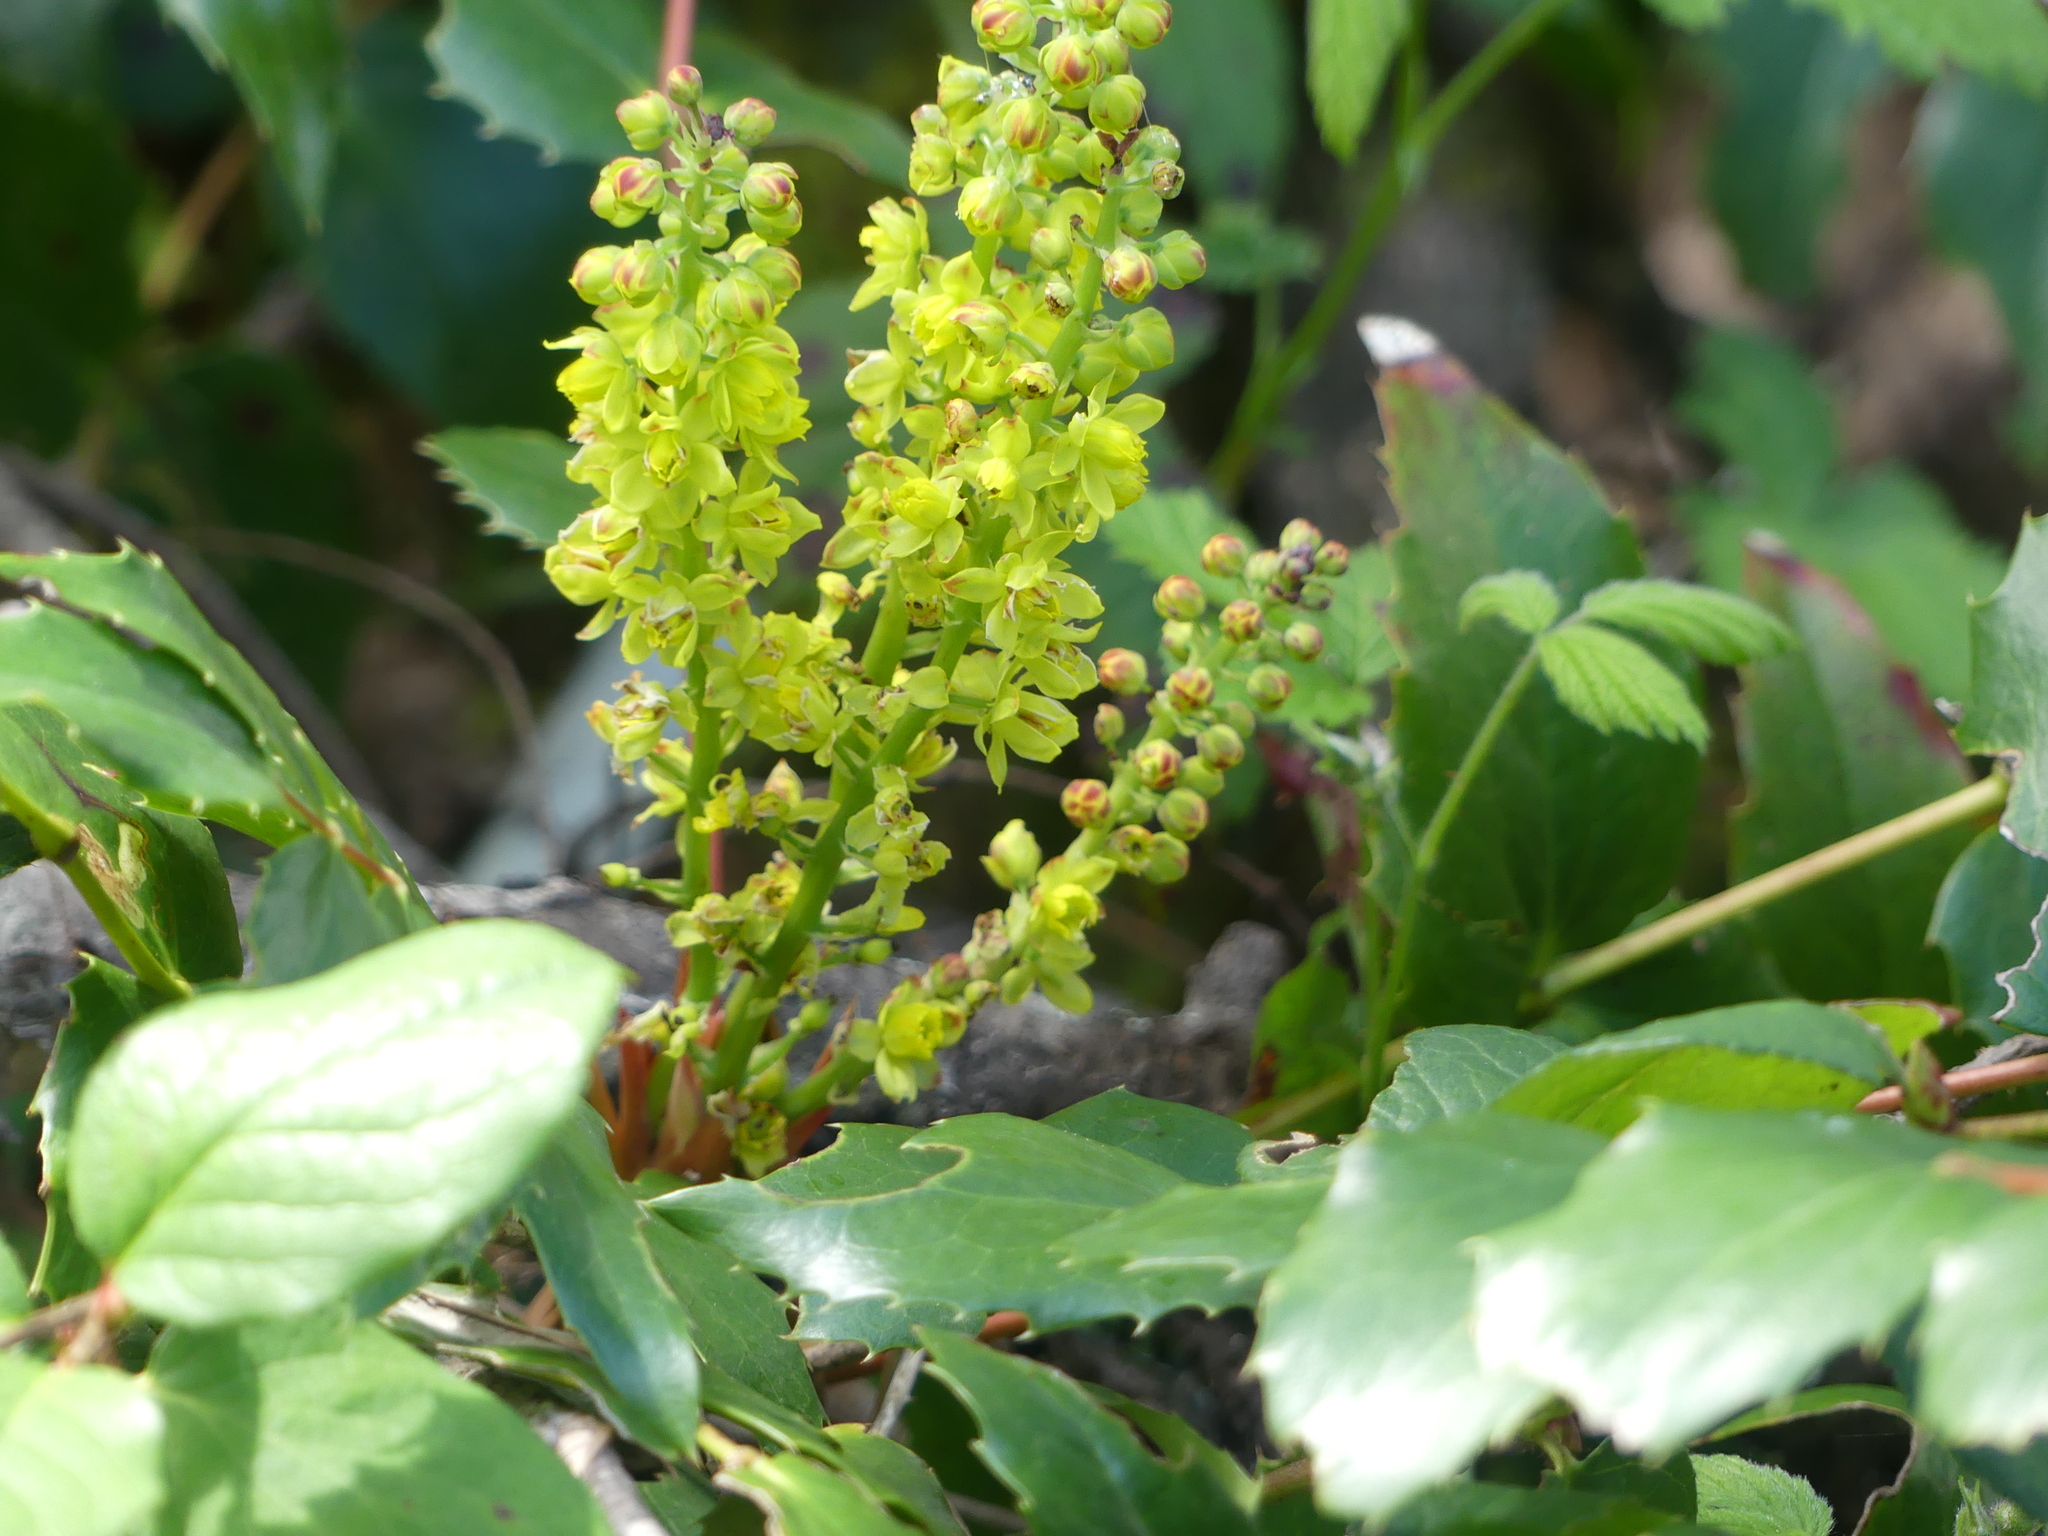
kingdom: Plantae
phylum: Tracheophyta
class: Magnoliopsida
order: Ranunculales
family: Berberidaceae
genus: Mahonia
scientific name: Mahonia nervosa
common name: Cascade oregon-grape
